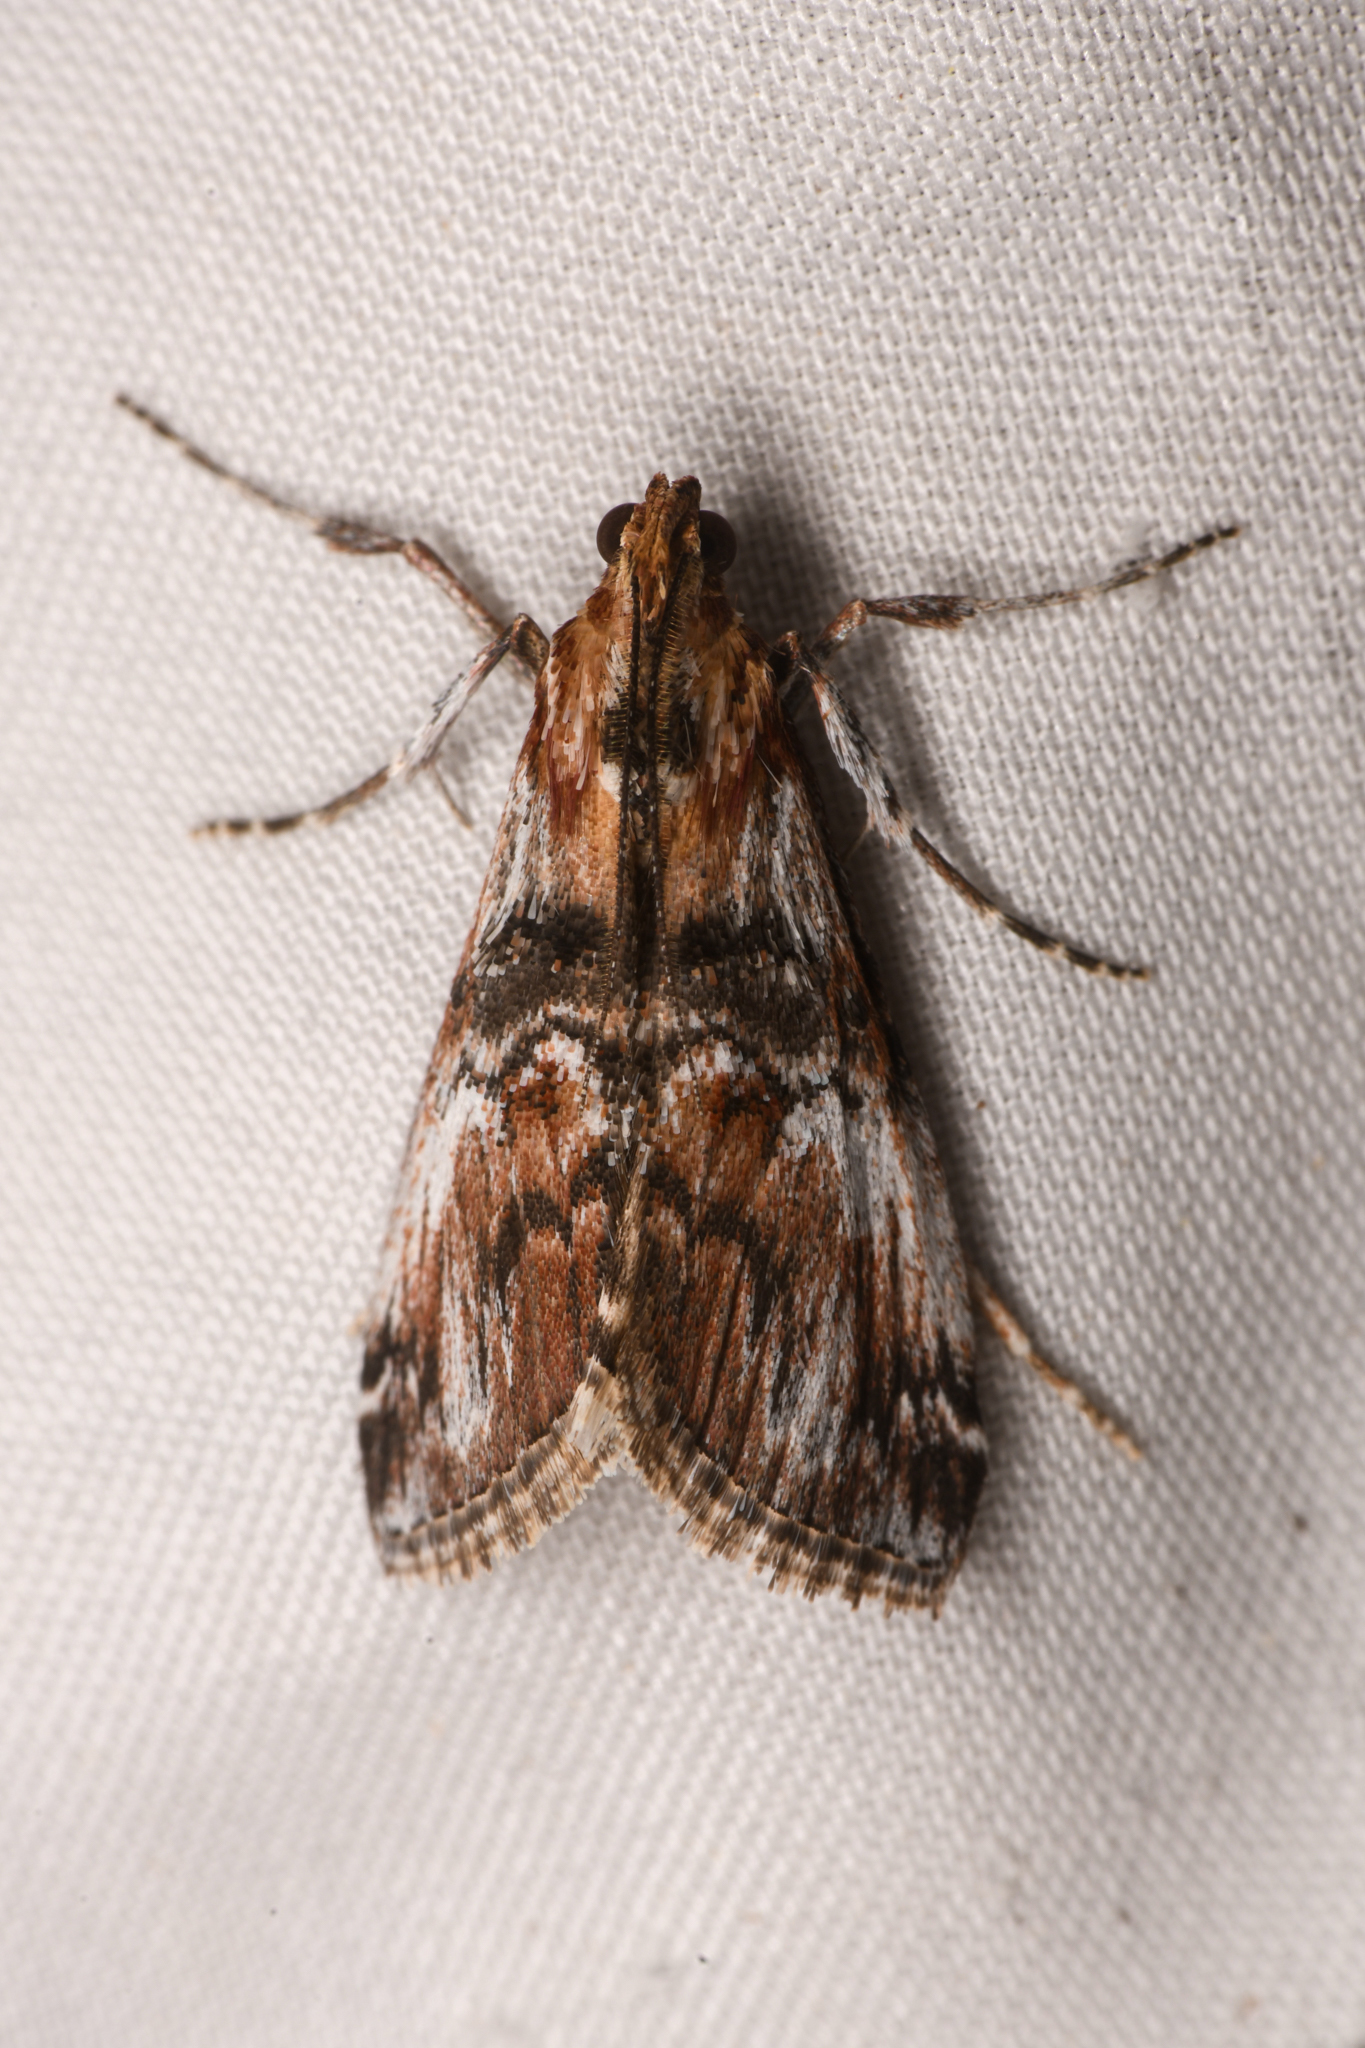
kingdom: Animalia
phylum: Arthropoda
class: Insecta
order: Lepidoptera
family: Pyralidae
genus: Toripalpus
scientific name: Toripalpus trabalis
